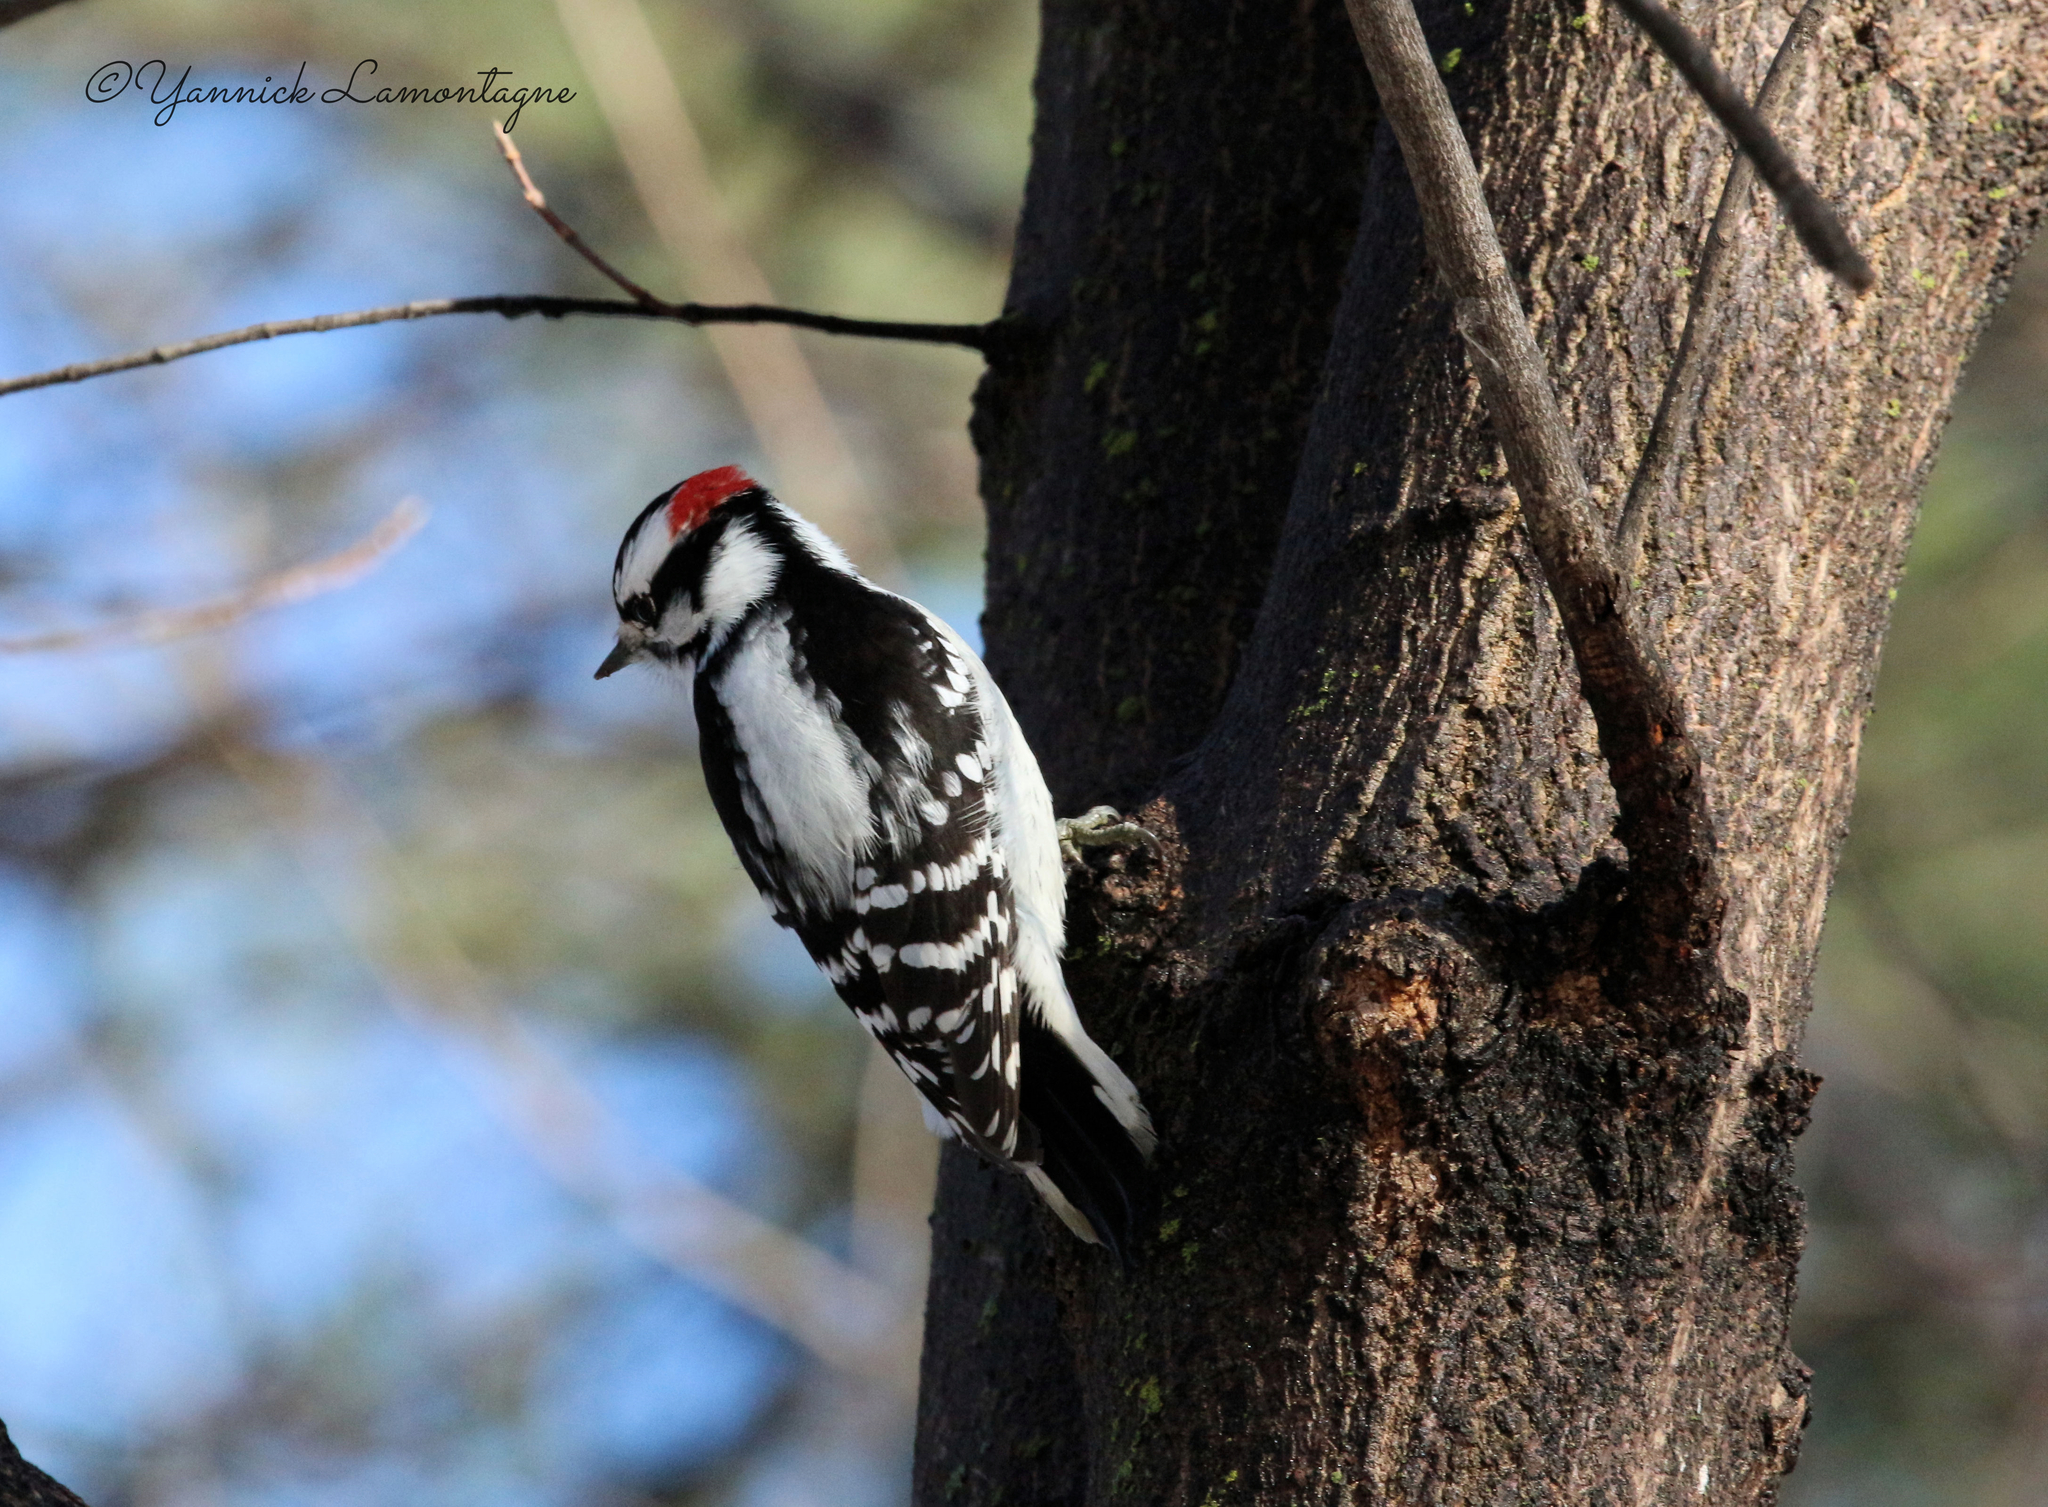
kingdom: Animalia
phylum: Chordata
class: Aves
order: Piciformes
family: Picidae
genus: Dryobates
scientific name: Dryobates pubescens
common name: Downy woodpecker
